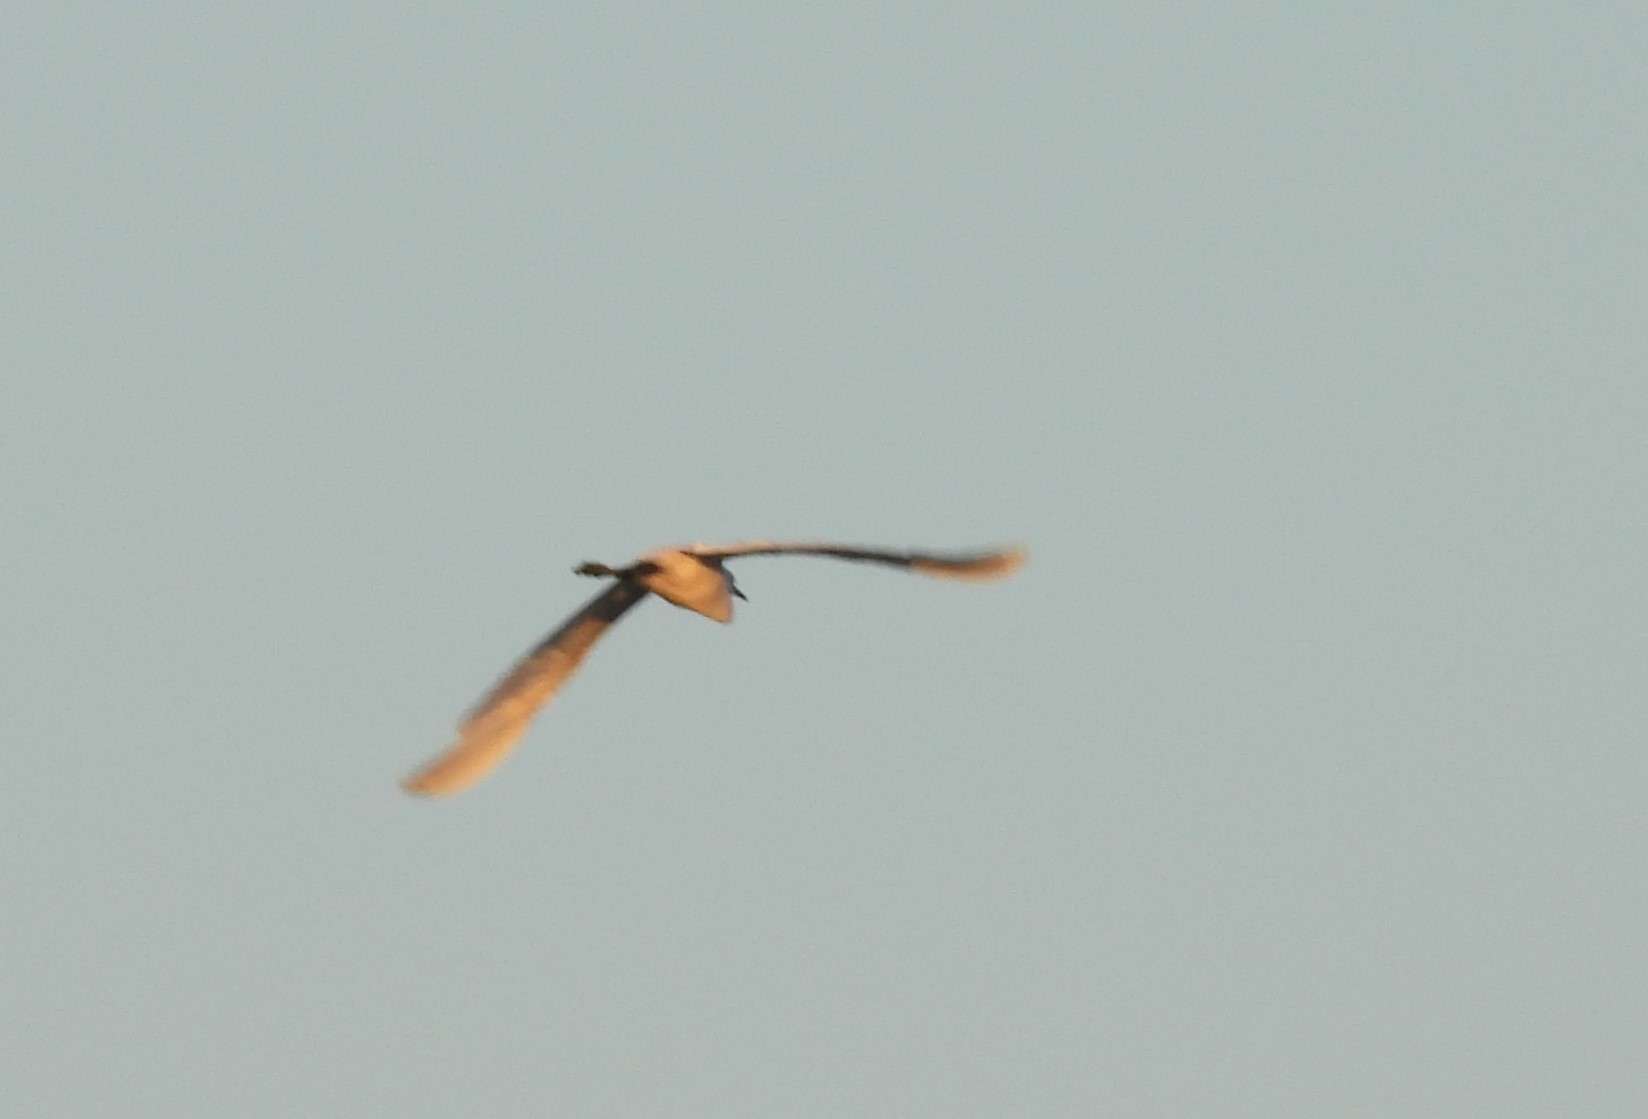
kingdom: Animalia
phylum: Chordata
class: Aves
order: Pelecaniformes
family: Ardeidae
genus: Ardea
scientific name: Ardea alba
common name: Great egret
